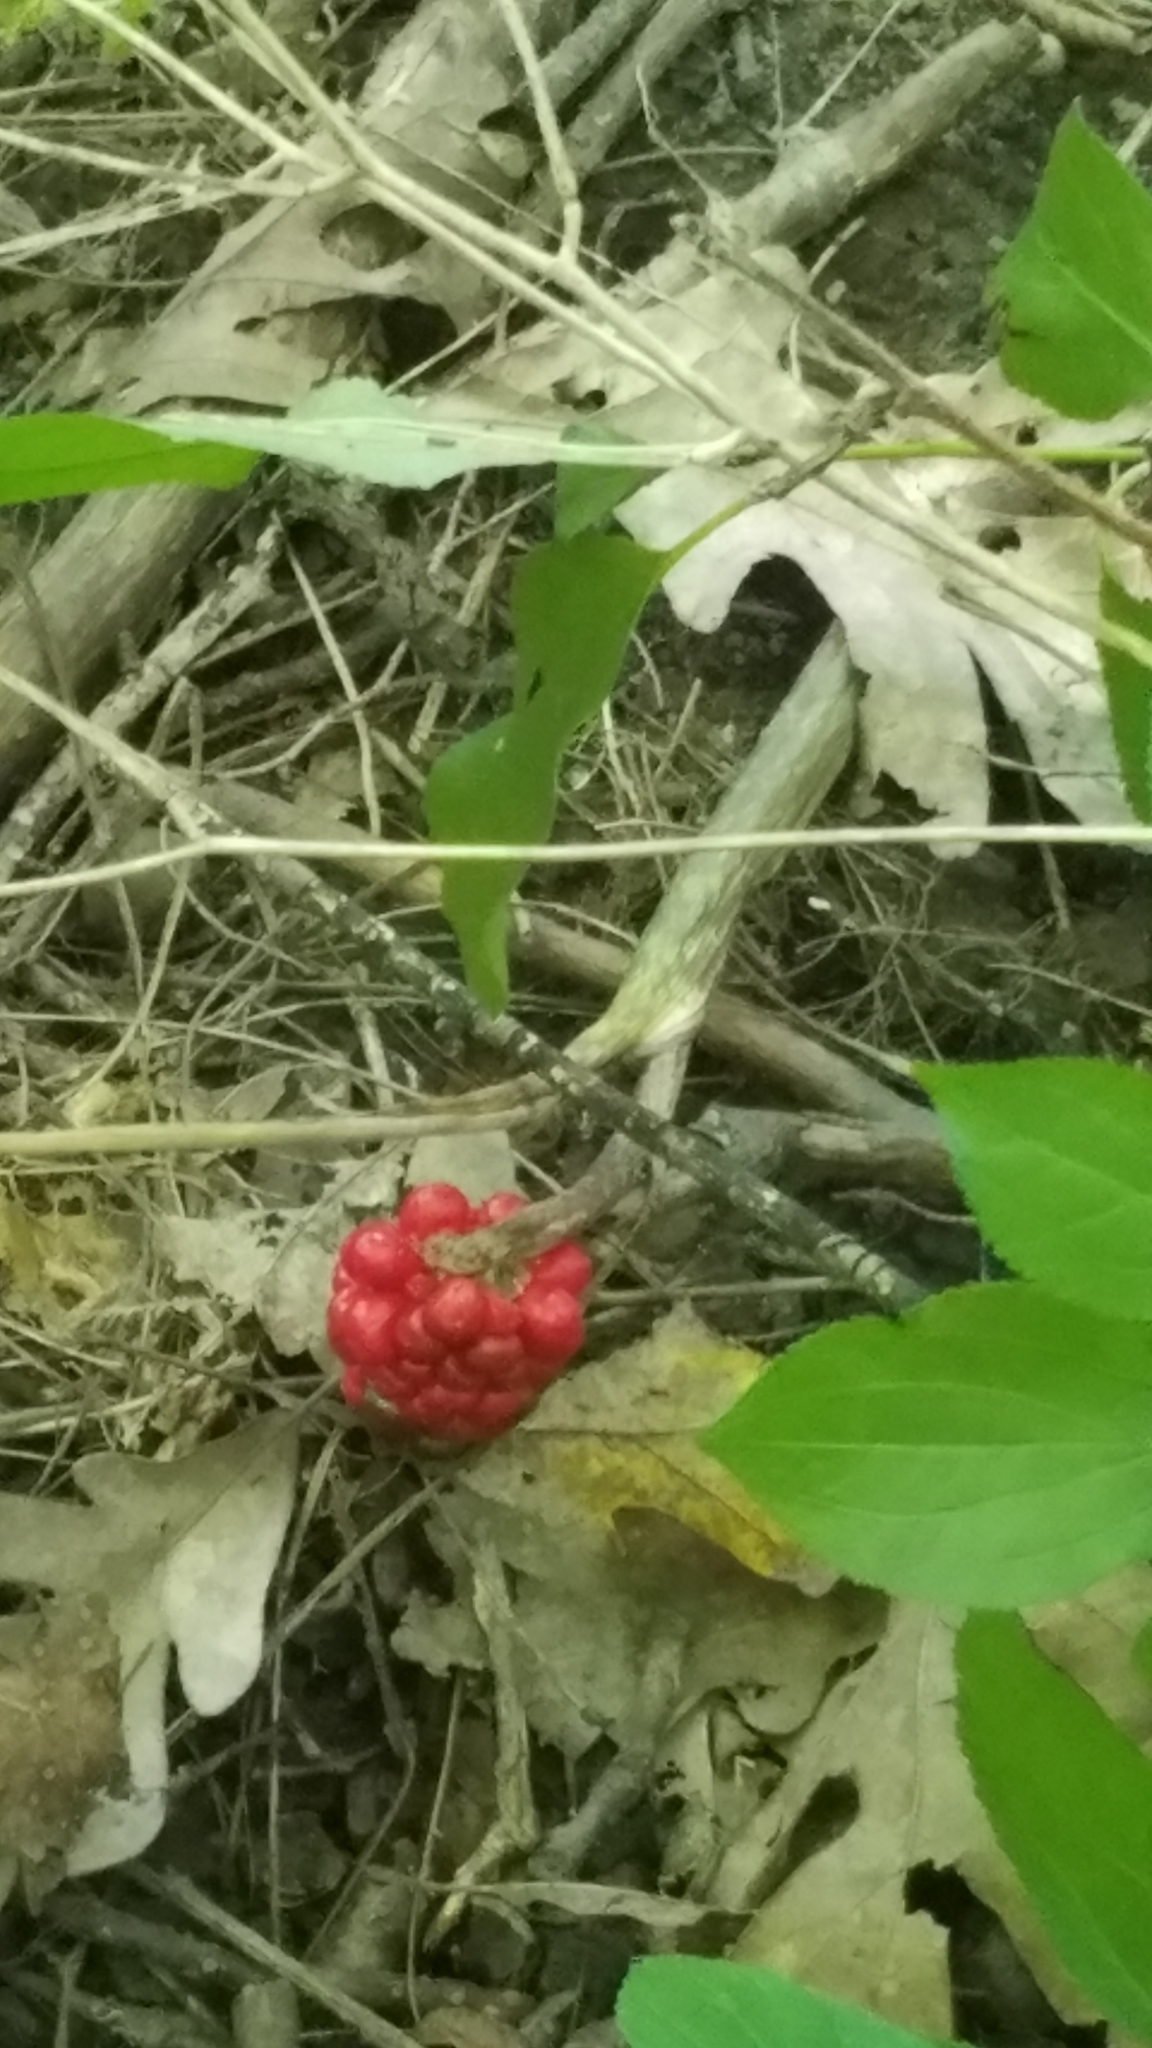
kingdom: Plantae
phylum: Tracheophyta
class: Liliopsida
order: Alismatales
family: Araceae
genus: Arisaema
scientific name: Arisaema triphyllum
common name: Jack-in-the-pulpit
